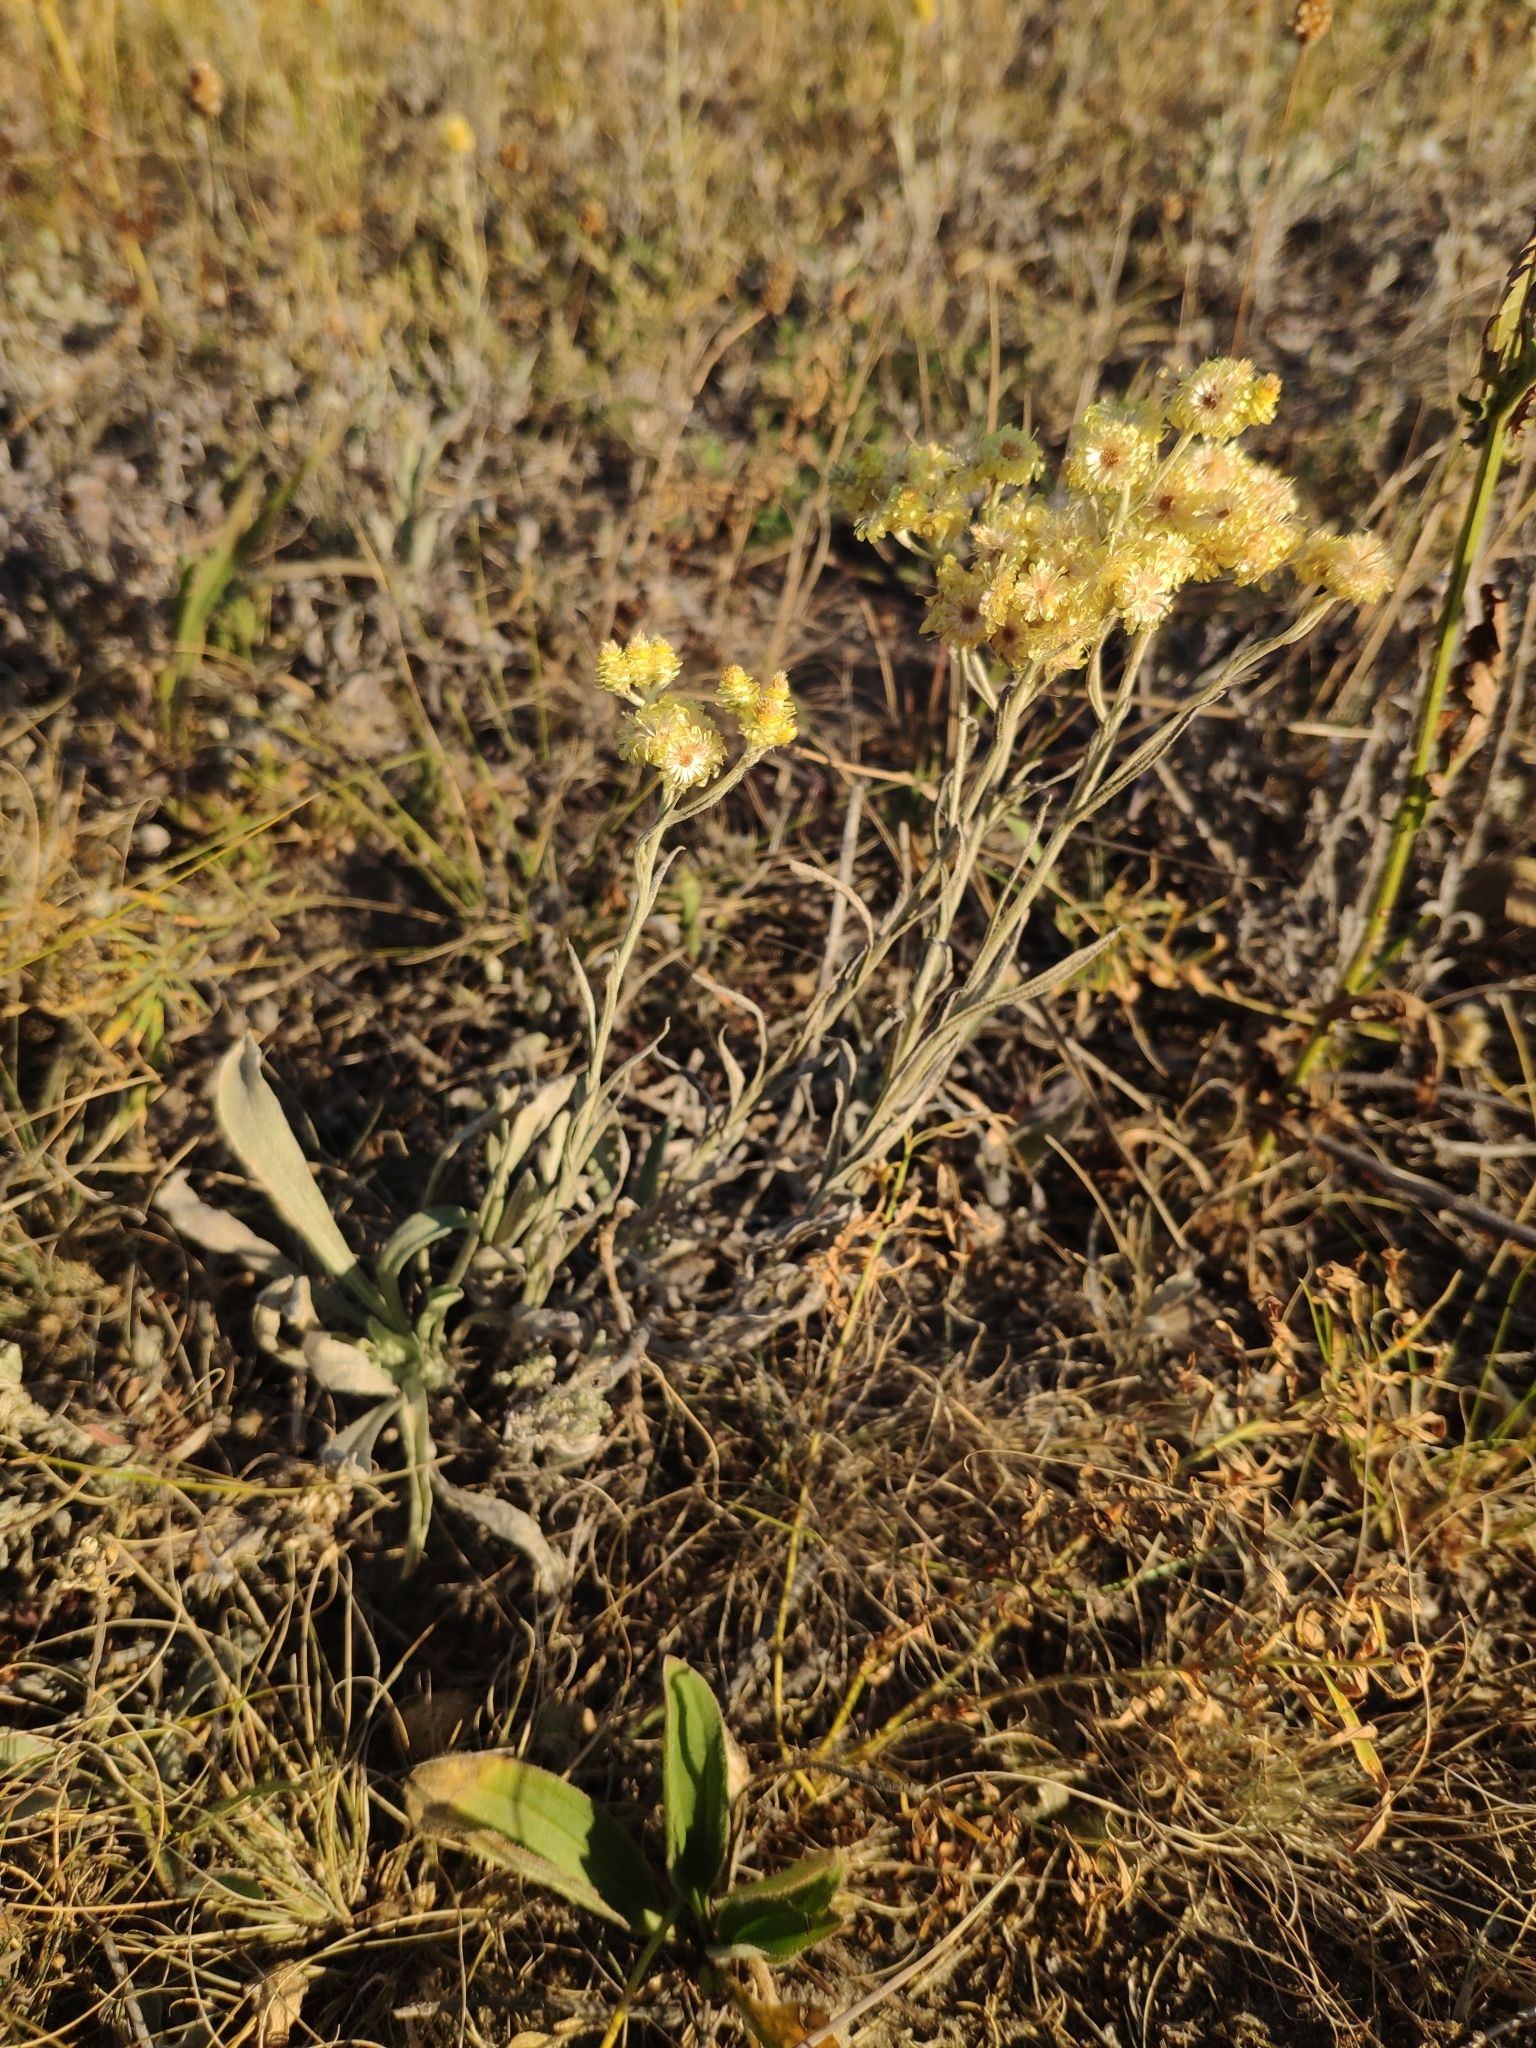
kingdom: Plantae
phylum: Tracheophyta
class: Magnoliopsida
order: Asterales
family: Asteraceae
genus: Helichrysum
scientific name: Helichrysum arenarium
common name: Strawflower
